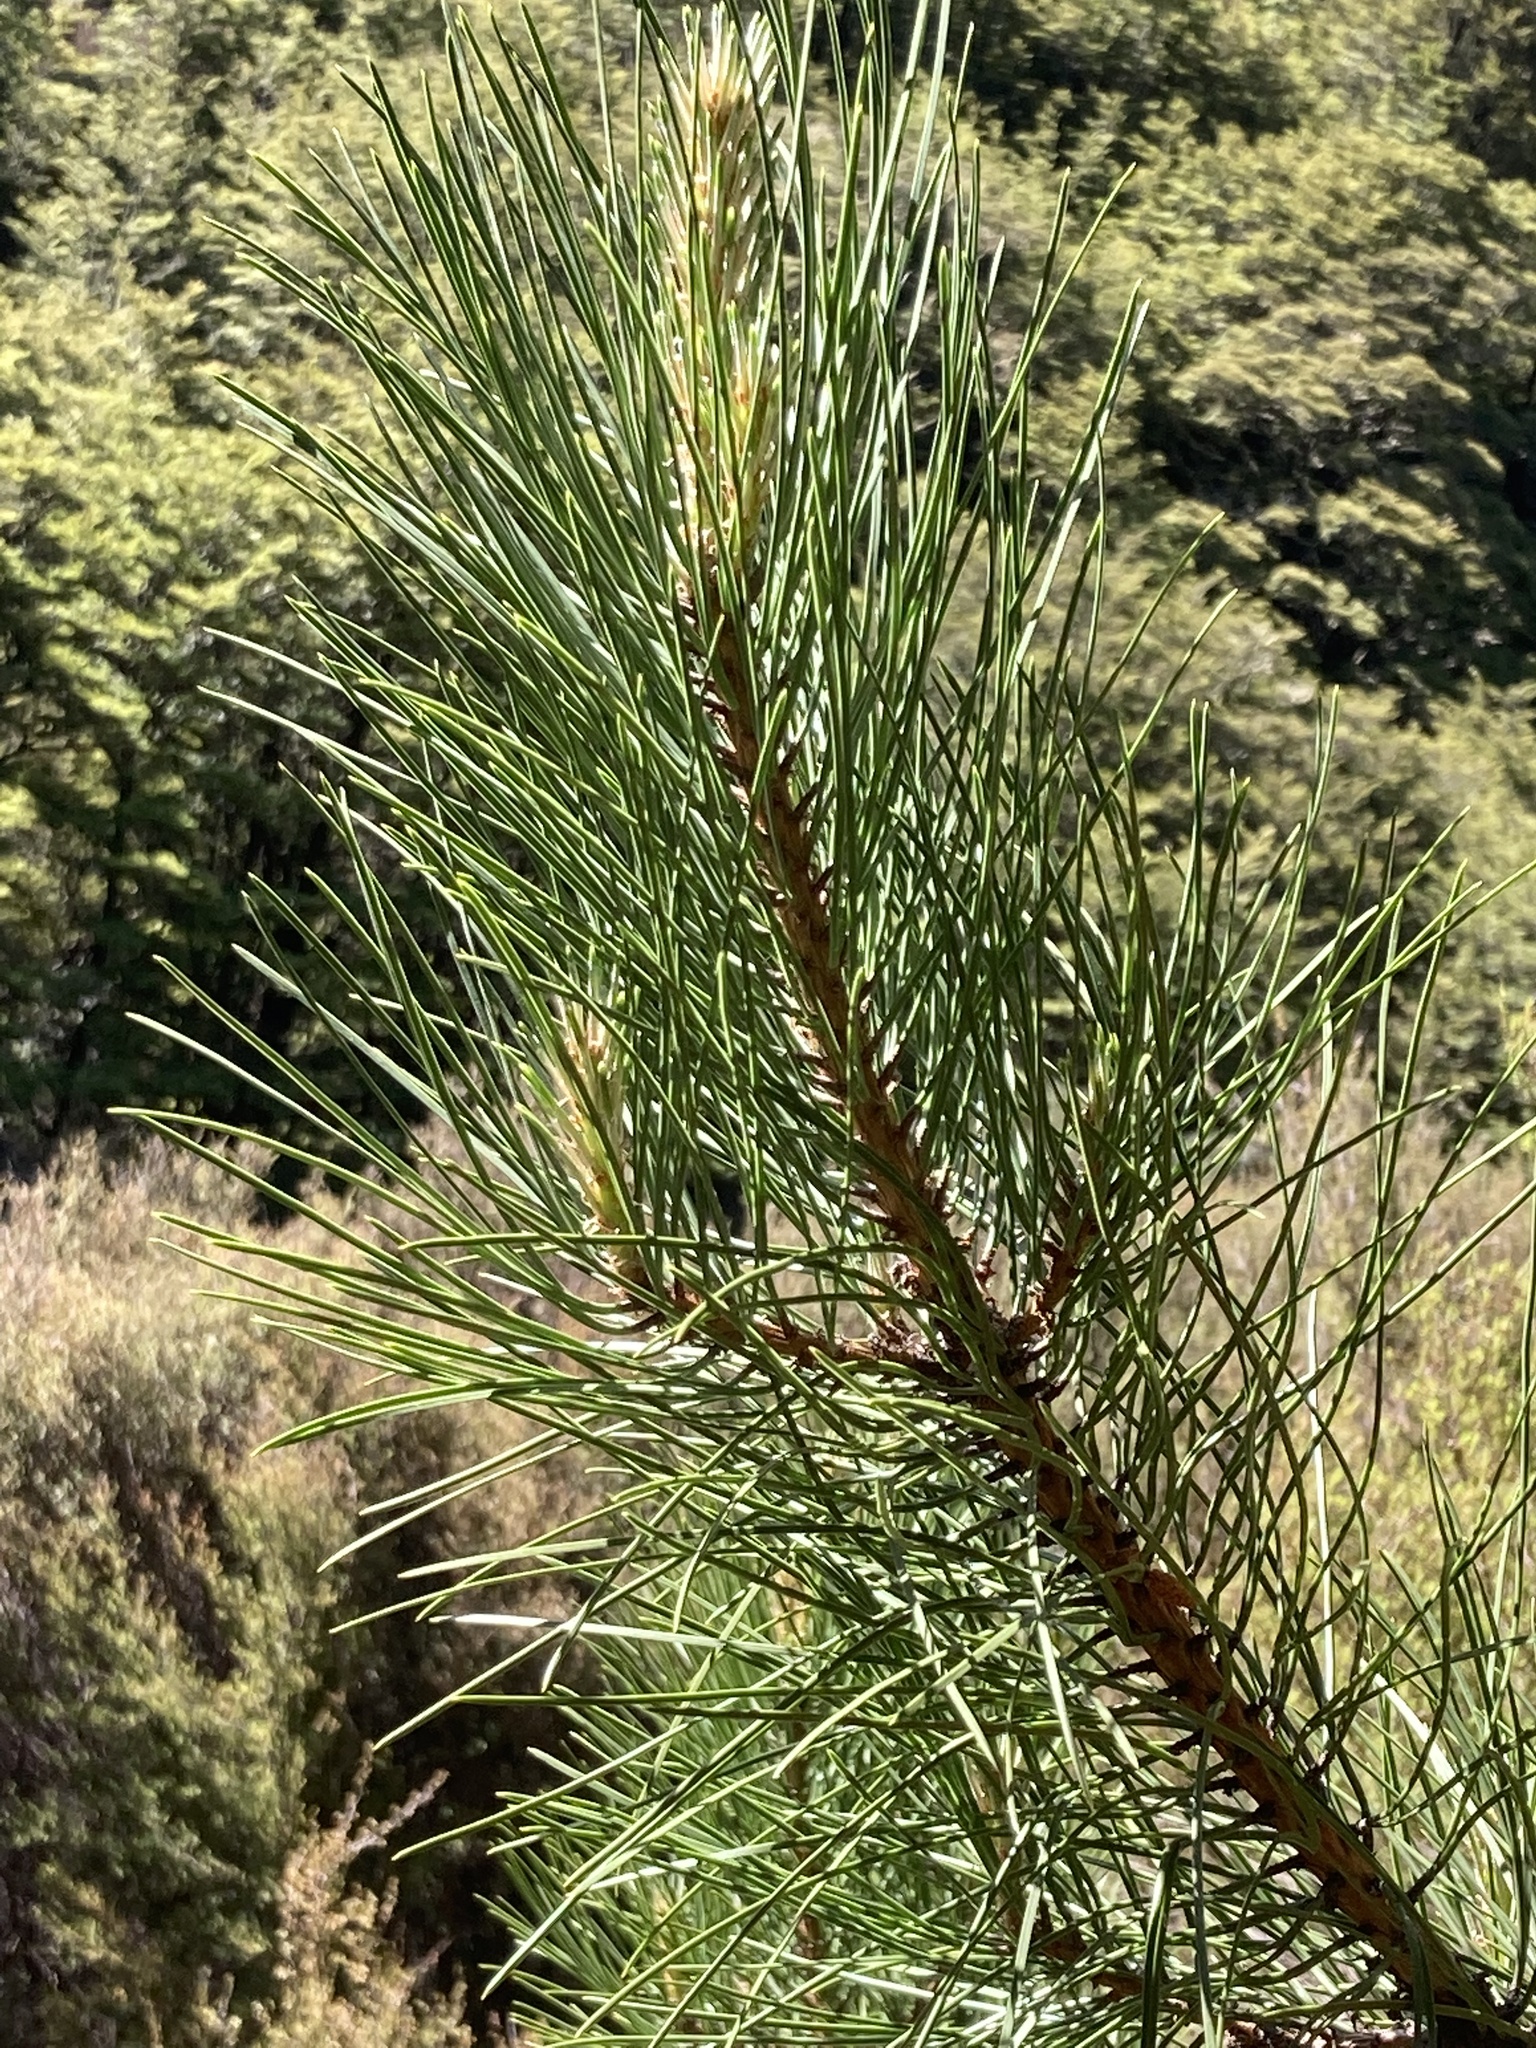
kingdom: Plantae
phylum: Tracheophyta
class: Pinopsida
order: Pinales
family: Pinaceae
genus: Pinus
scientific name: Pinus nigra
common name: Austrian pine
